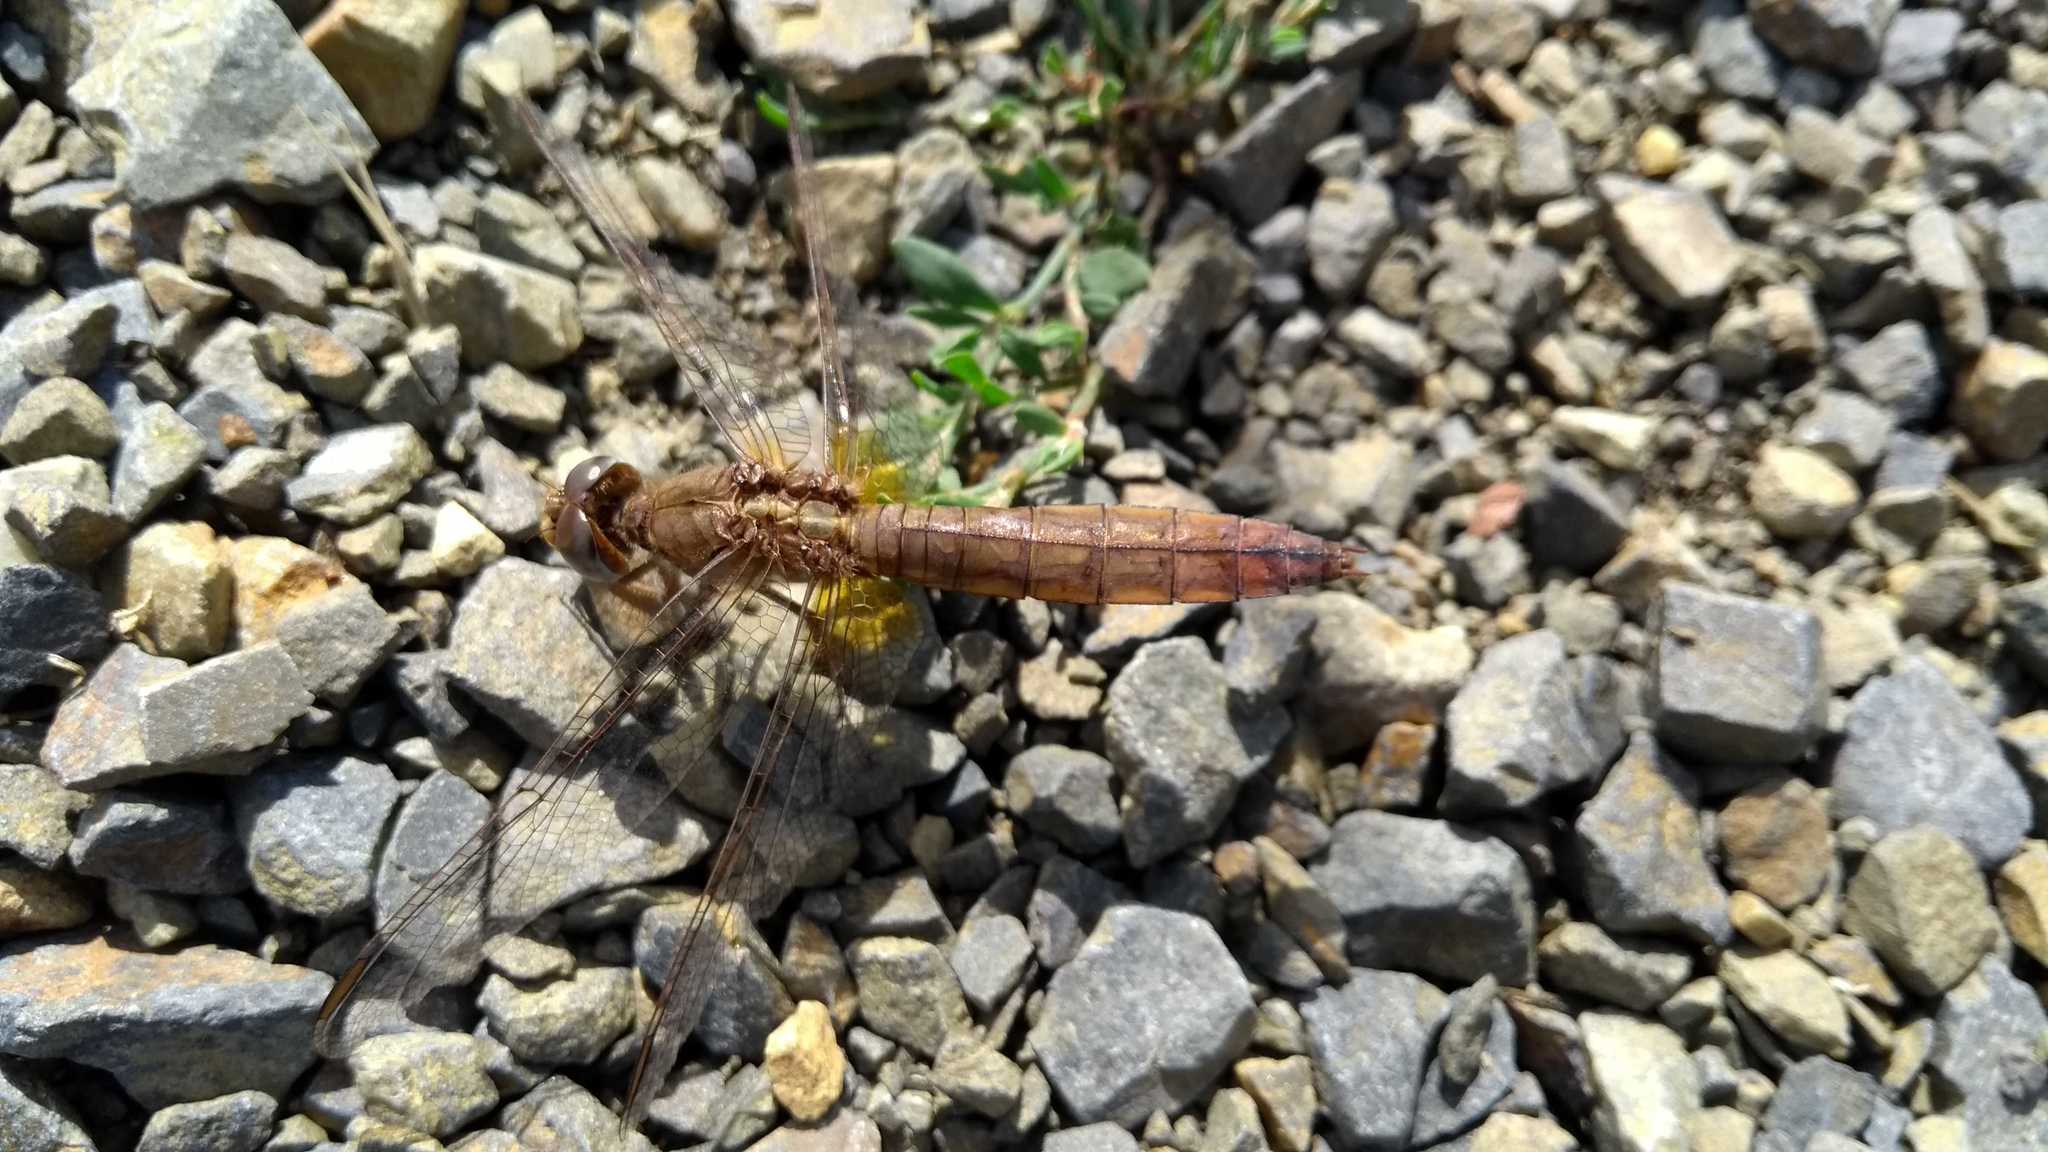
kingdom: Animalia
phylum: Arthropoda
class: Insecta
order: Odonata
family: Libellulidae
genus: Crocothemis
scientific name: Crocothemis erythraea
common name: Scarlet dragonfly
